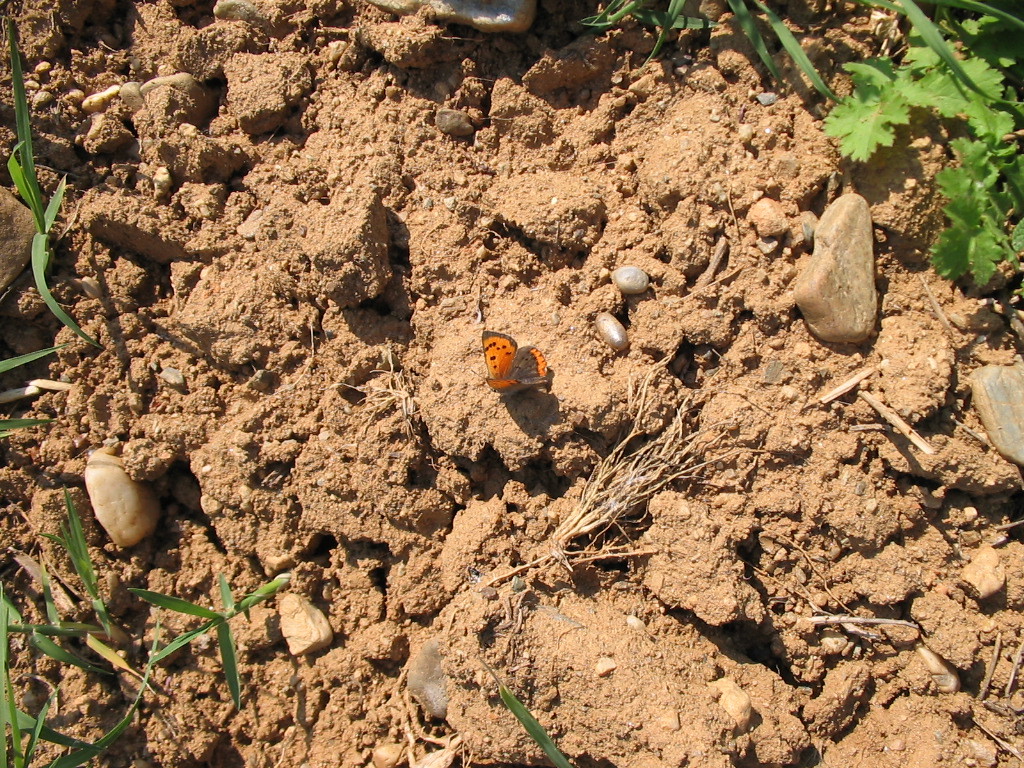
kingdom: Animalia
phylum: Arthropoda
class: Insecta
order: Lepidoptera
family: Lycaenidae
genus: Lycaena
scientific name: Lycaena phlaeas
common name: Small copper
